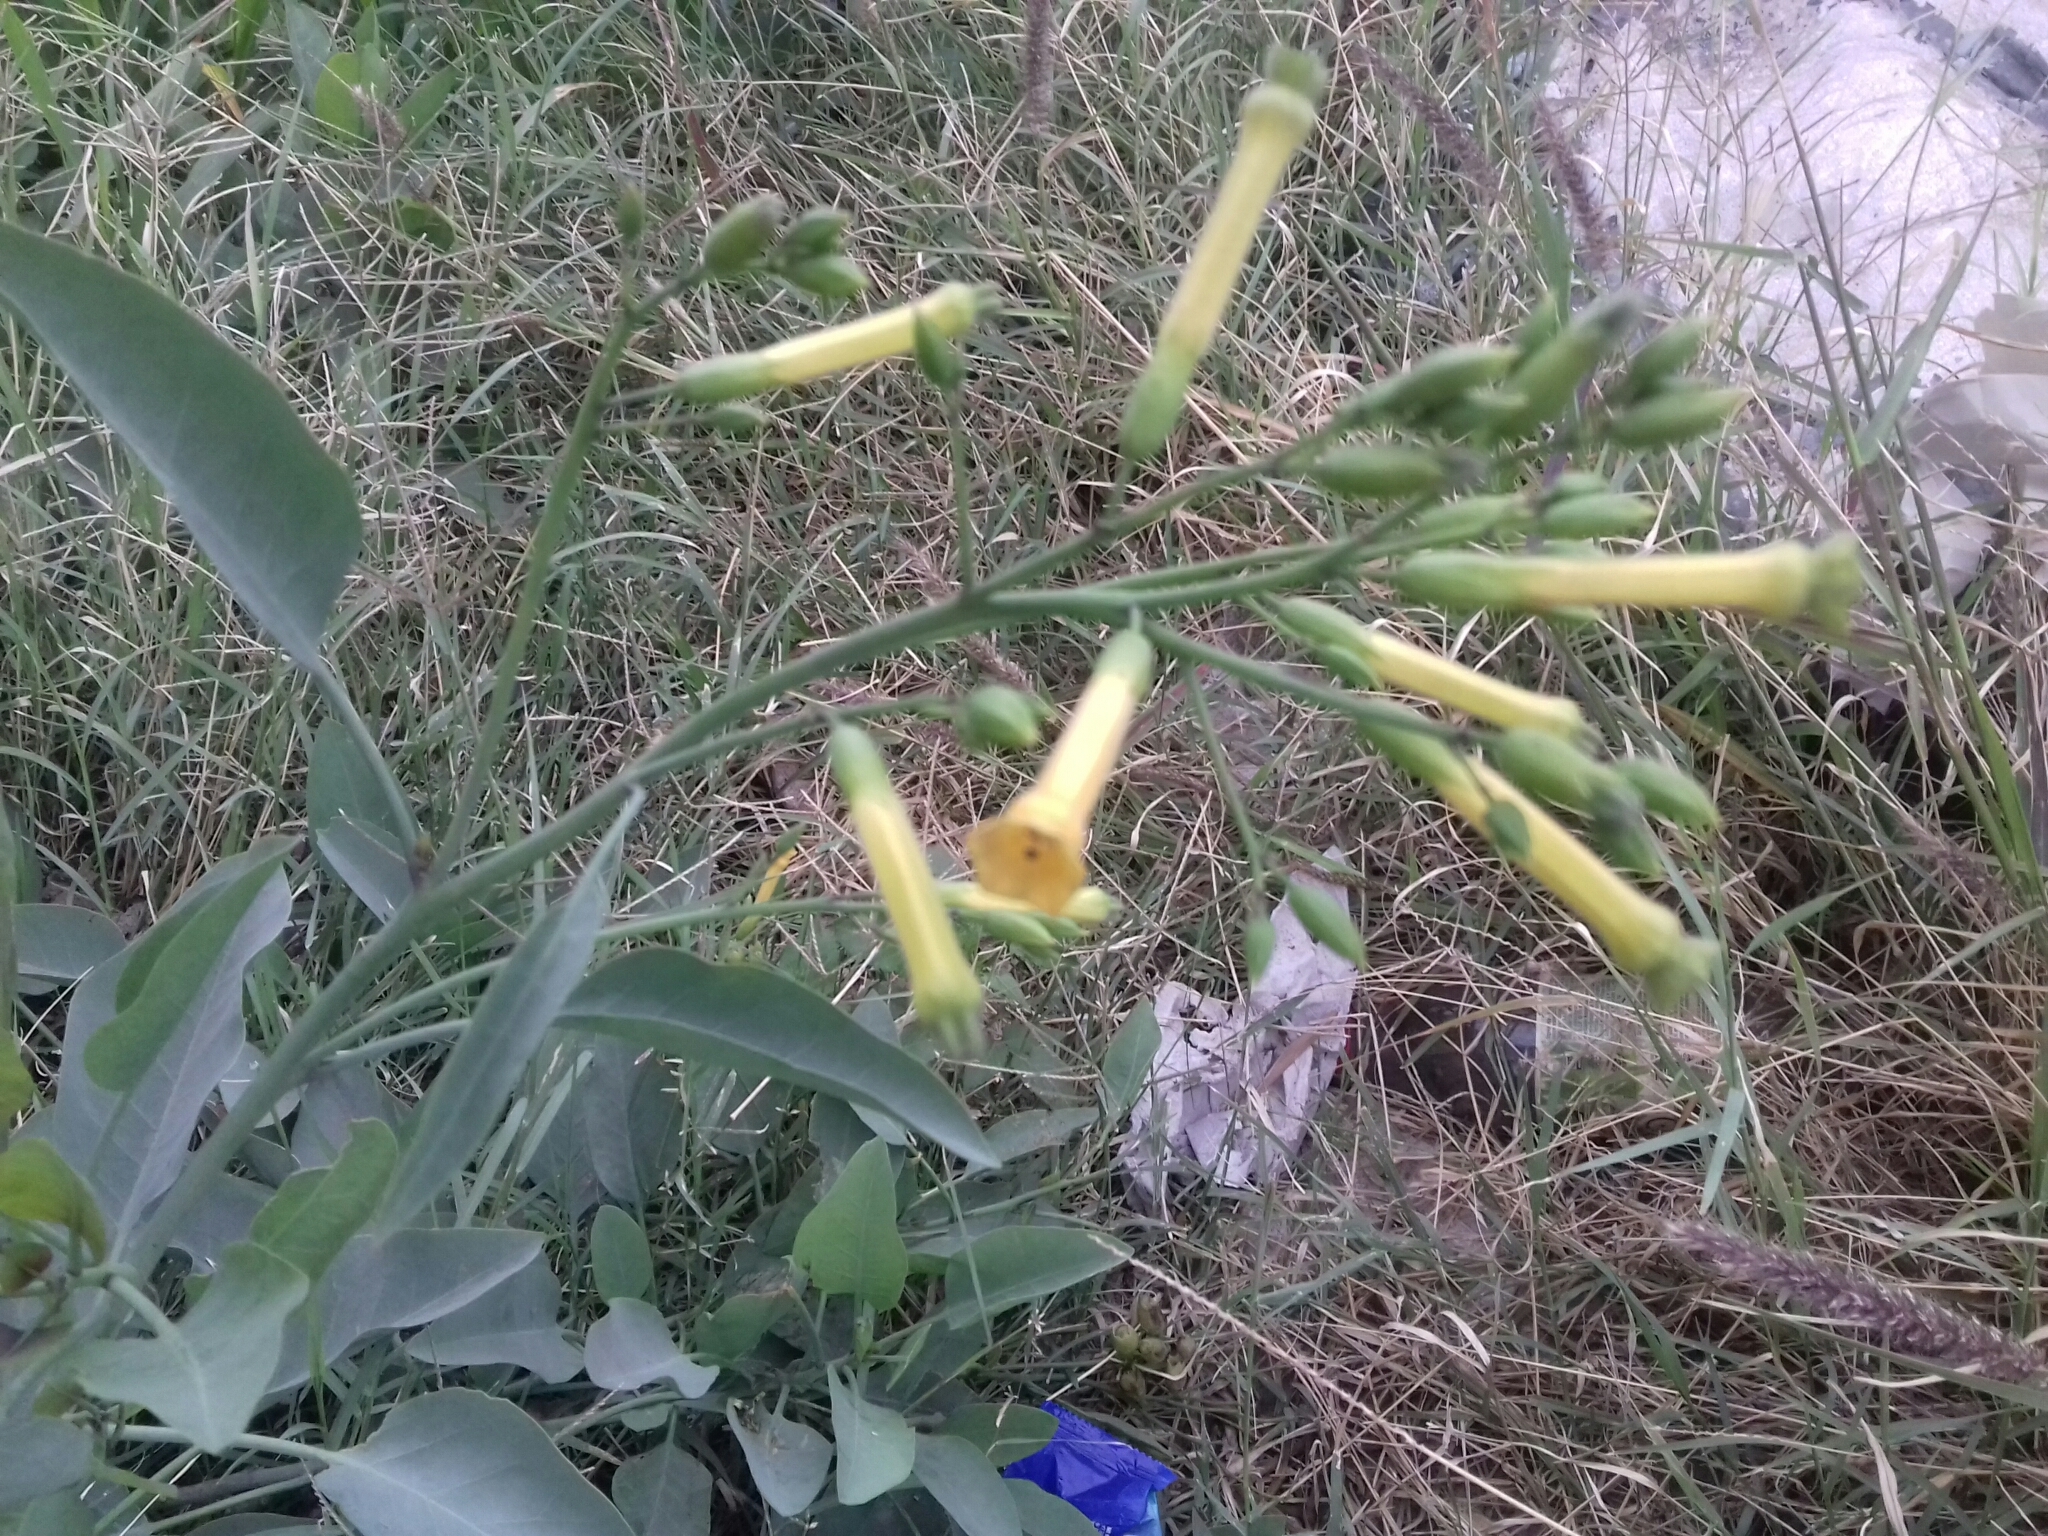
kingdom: Plantae
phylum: Tracheophyta
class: Magnoliopsida
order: Solanales
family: Solanaceae
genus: Nicotiana
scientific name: Nicotiana glauca
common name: Tree tobacco
